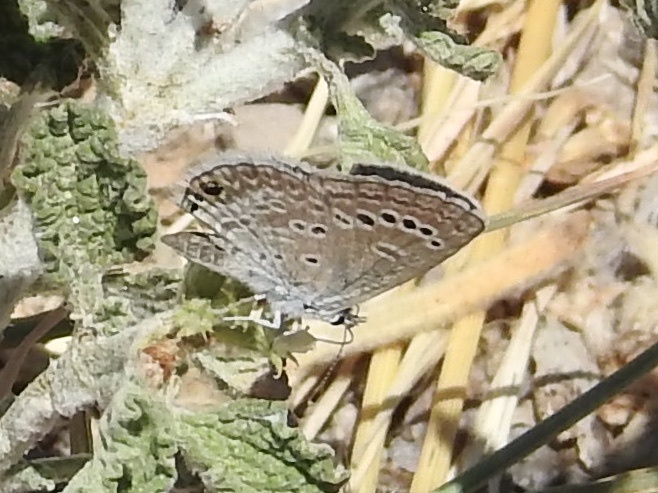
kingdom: Animalia
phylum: Arthropoda
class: Insecta
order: Lepidoptera
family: Lycaenidae
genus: Echinargus
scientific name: Echinargus isola
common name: Reakirt's blue
